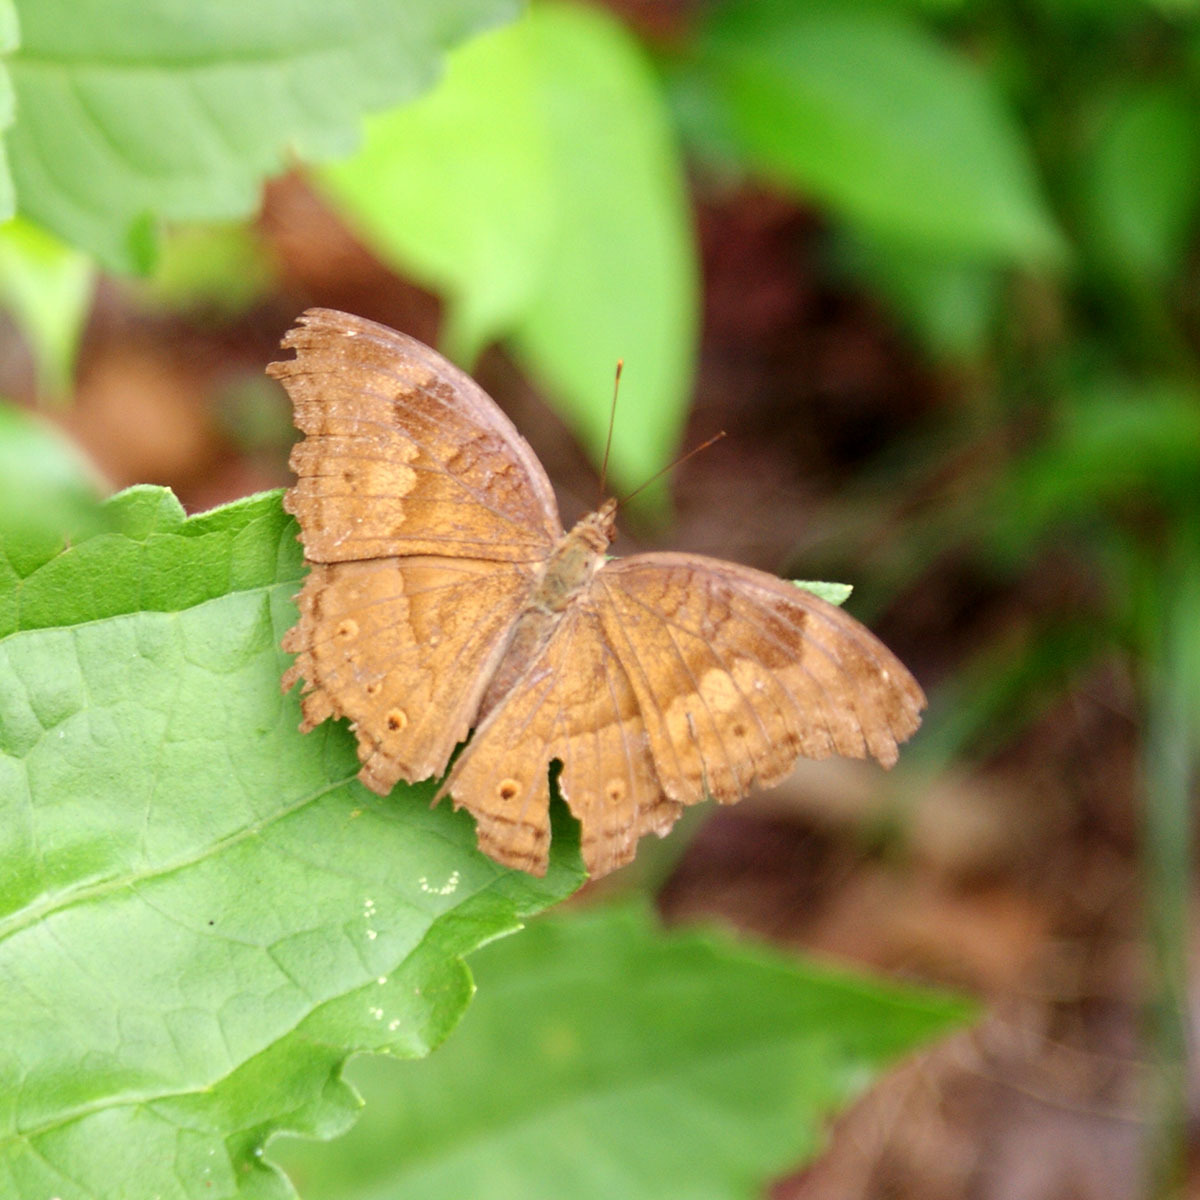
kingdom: Animalia
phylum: Arthropoda
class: Insecta
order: Lepidoptera
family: Nymphalidae
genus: Junonia
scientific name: Junonia iphita
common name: Chocolate pansy
